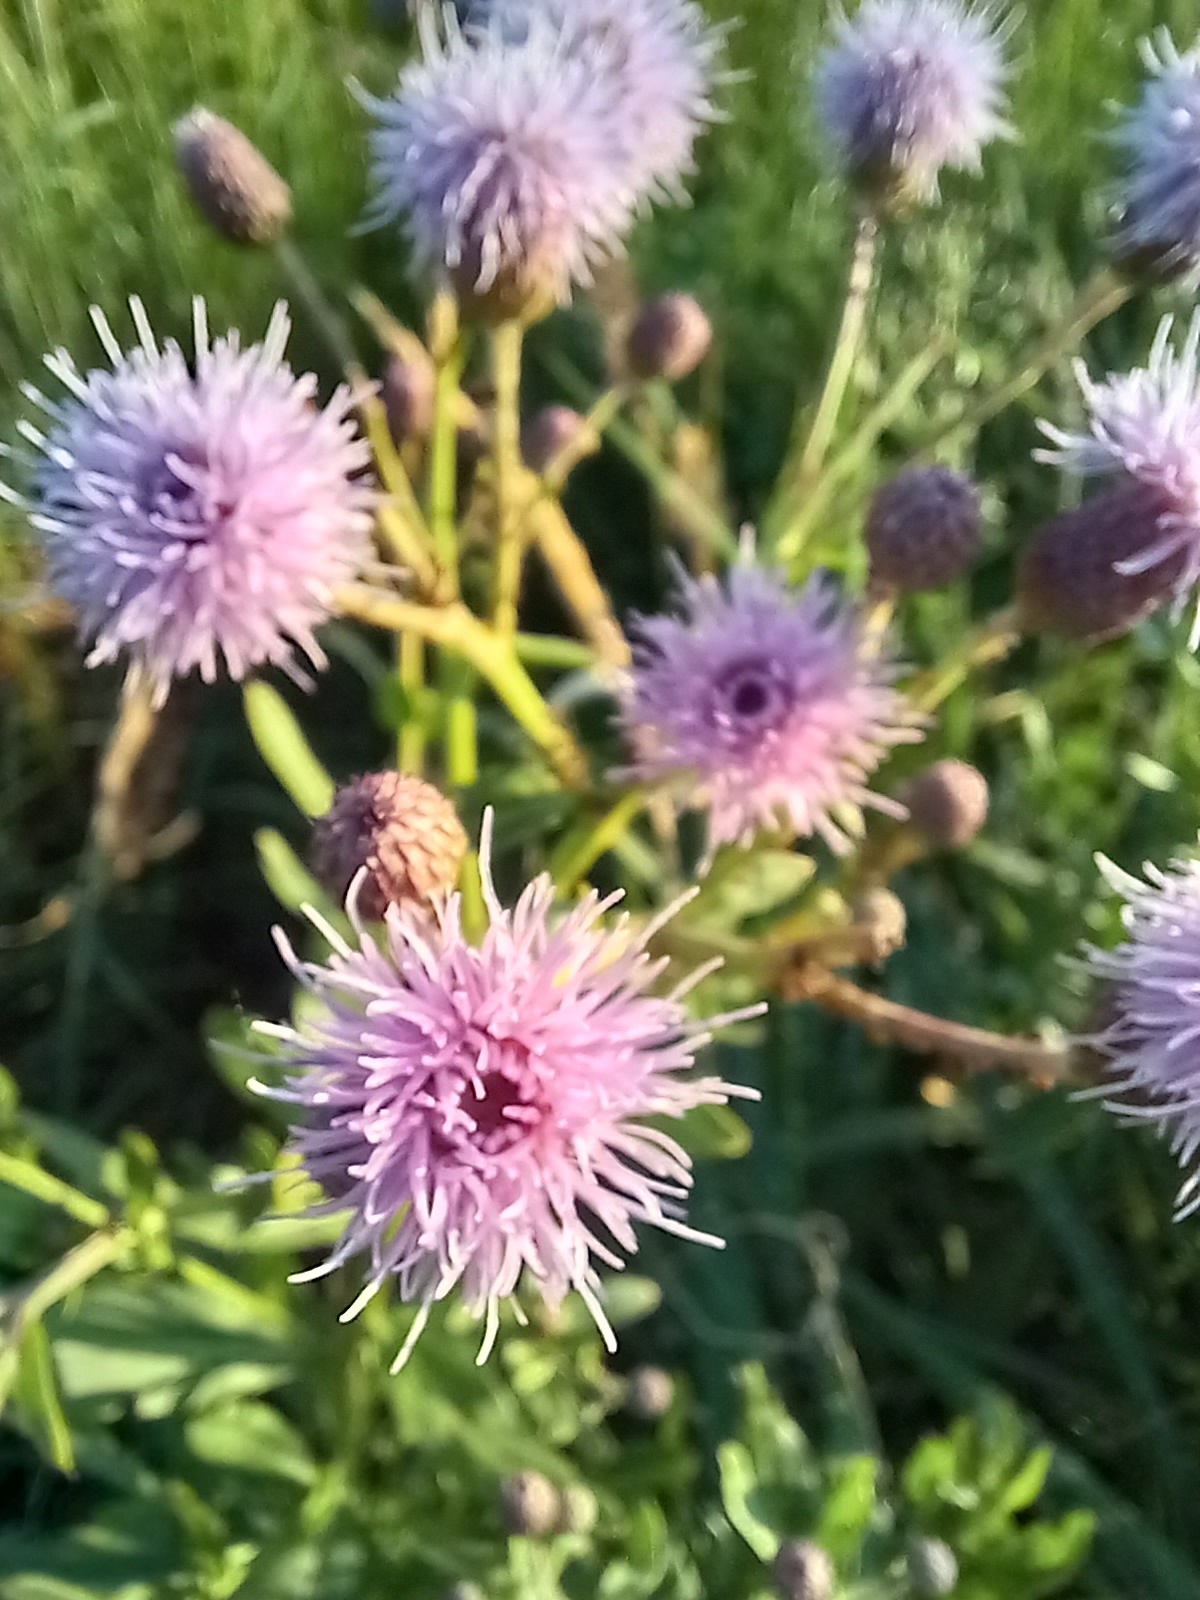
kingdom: Plantae
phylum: Tracheophyta
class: Magnoliopsida
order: Asterales
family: Asteraceae
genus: Cirsium
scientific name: Cirsium arvense
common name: Creeping thistle
